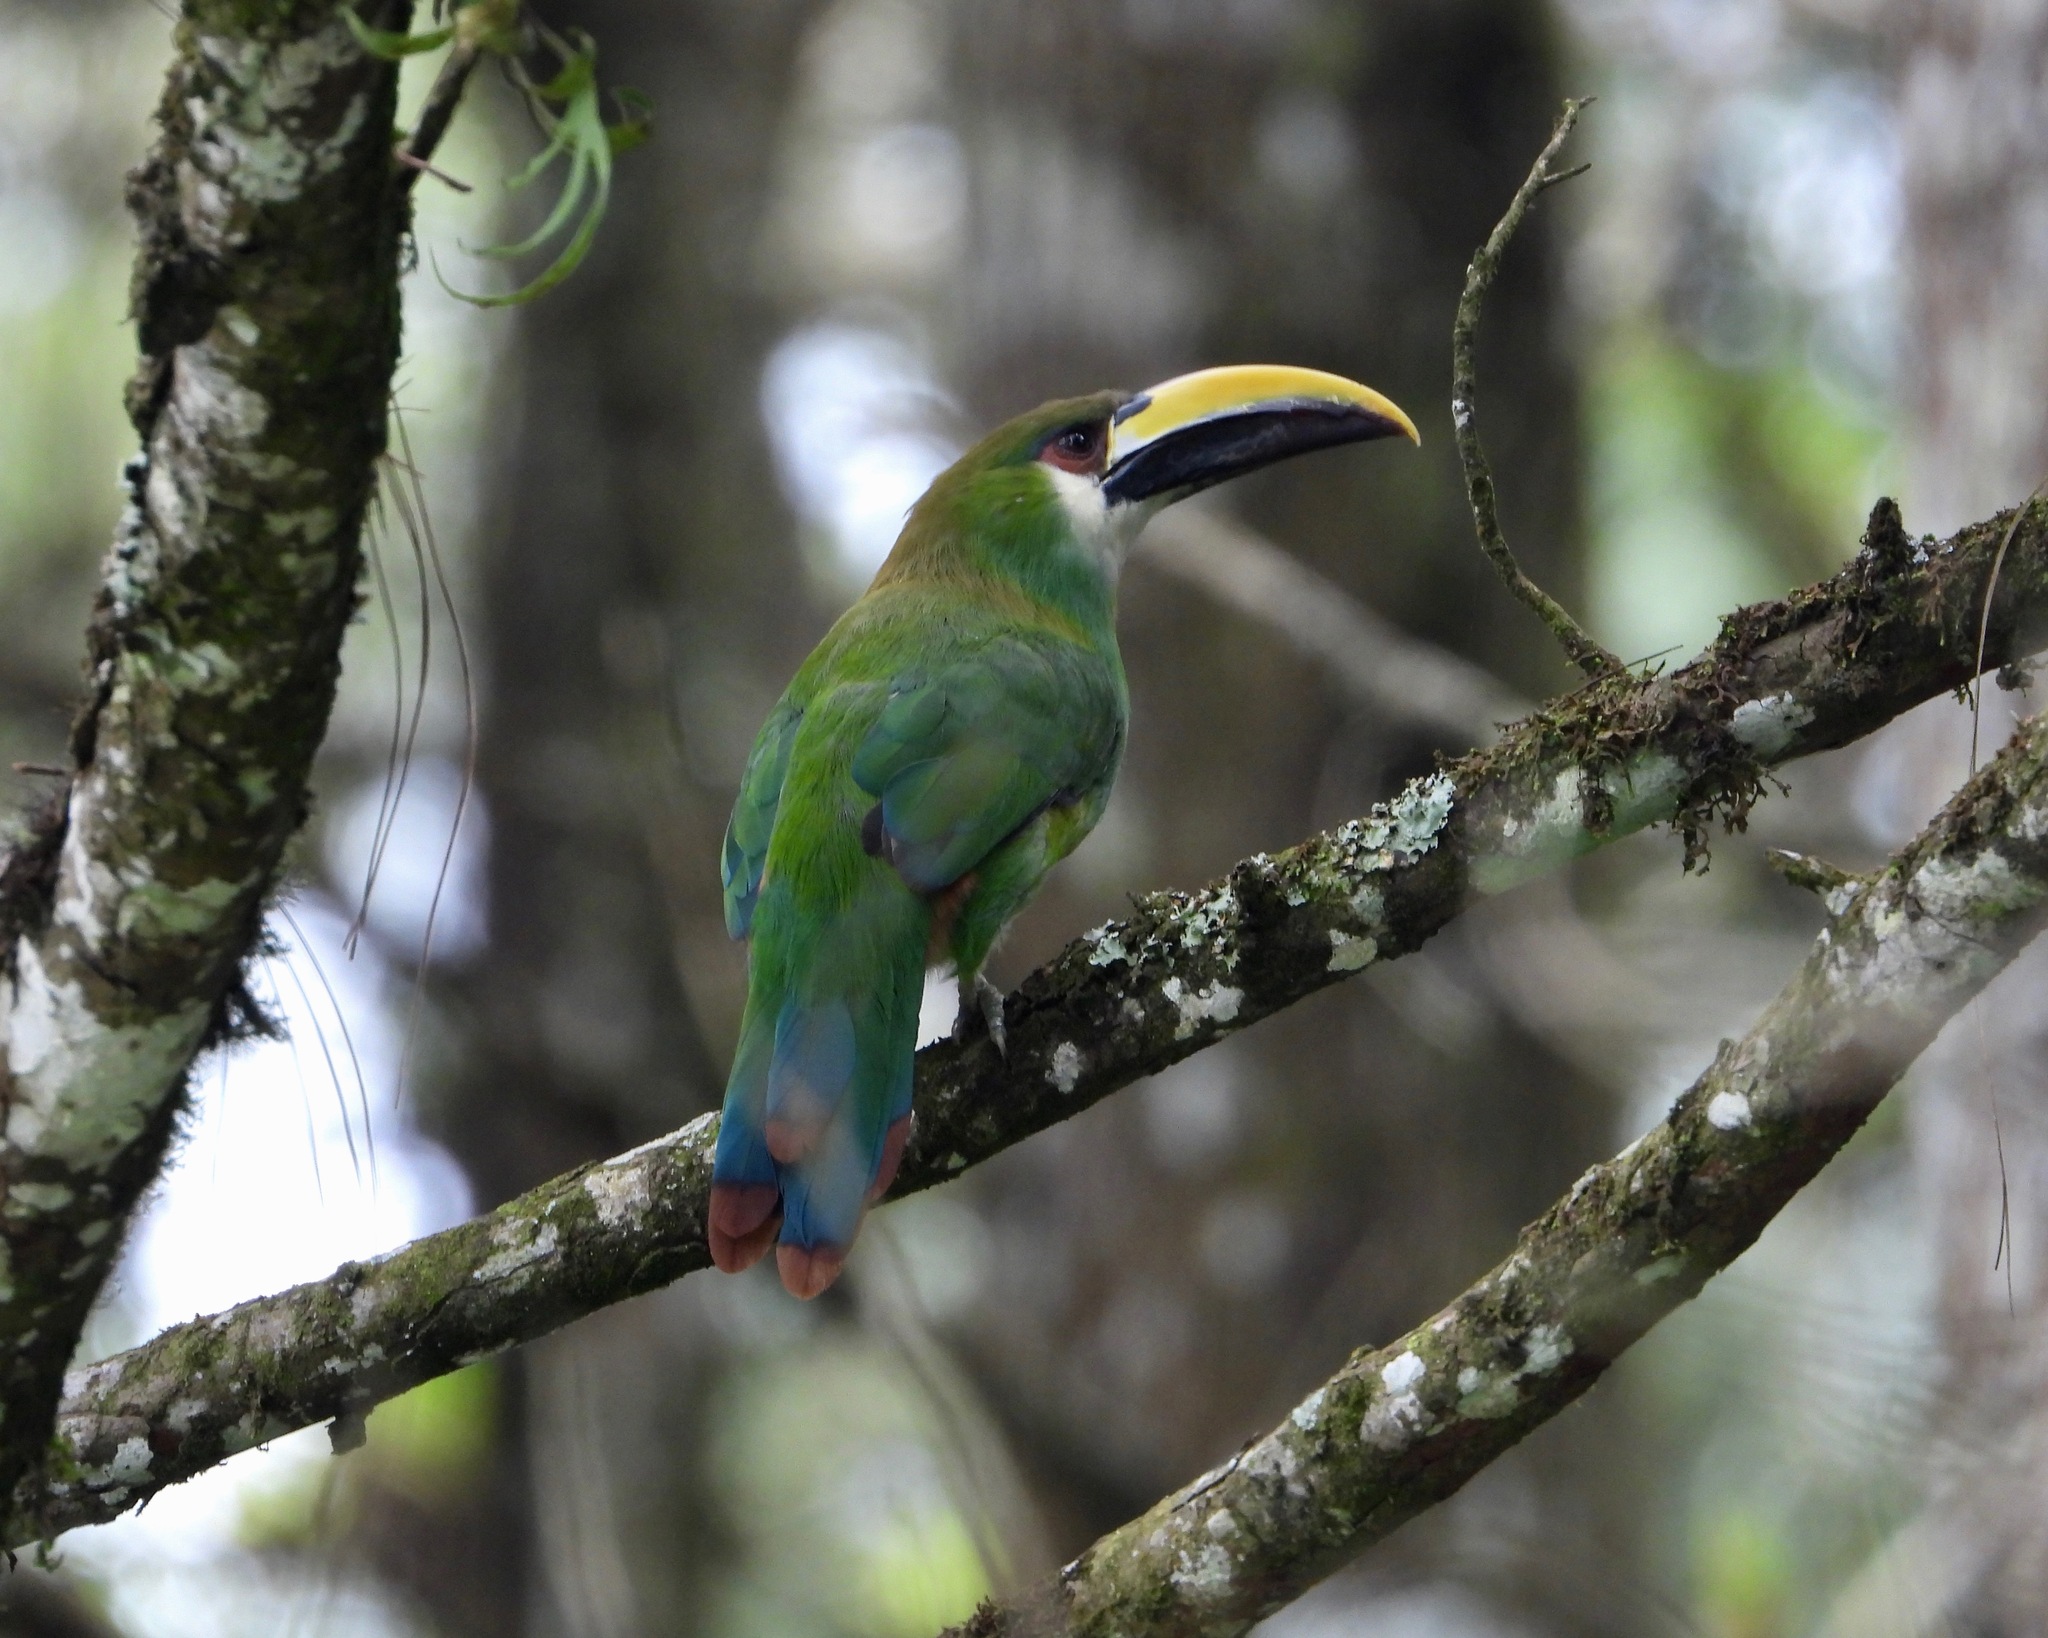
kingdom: Animalia
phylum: Chordata
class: Aves
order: Piciformes
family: Ramphastidae
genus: Aulacorhynchus
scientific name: Aulacorhynchus prasinus
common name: Emerald toucanet
